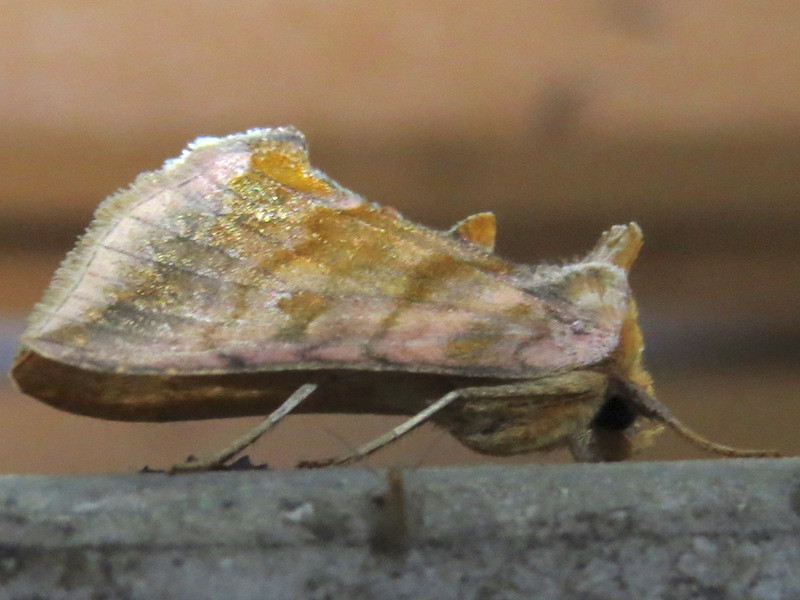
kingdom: Animalia
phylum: Arthropoda
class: Insecta
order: Lepidoptera
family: Noctuidae
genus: Allagrapha
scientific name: Allagrapha aerea
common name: Unspotted looper moth
